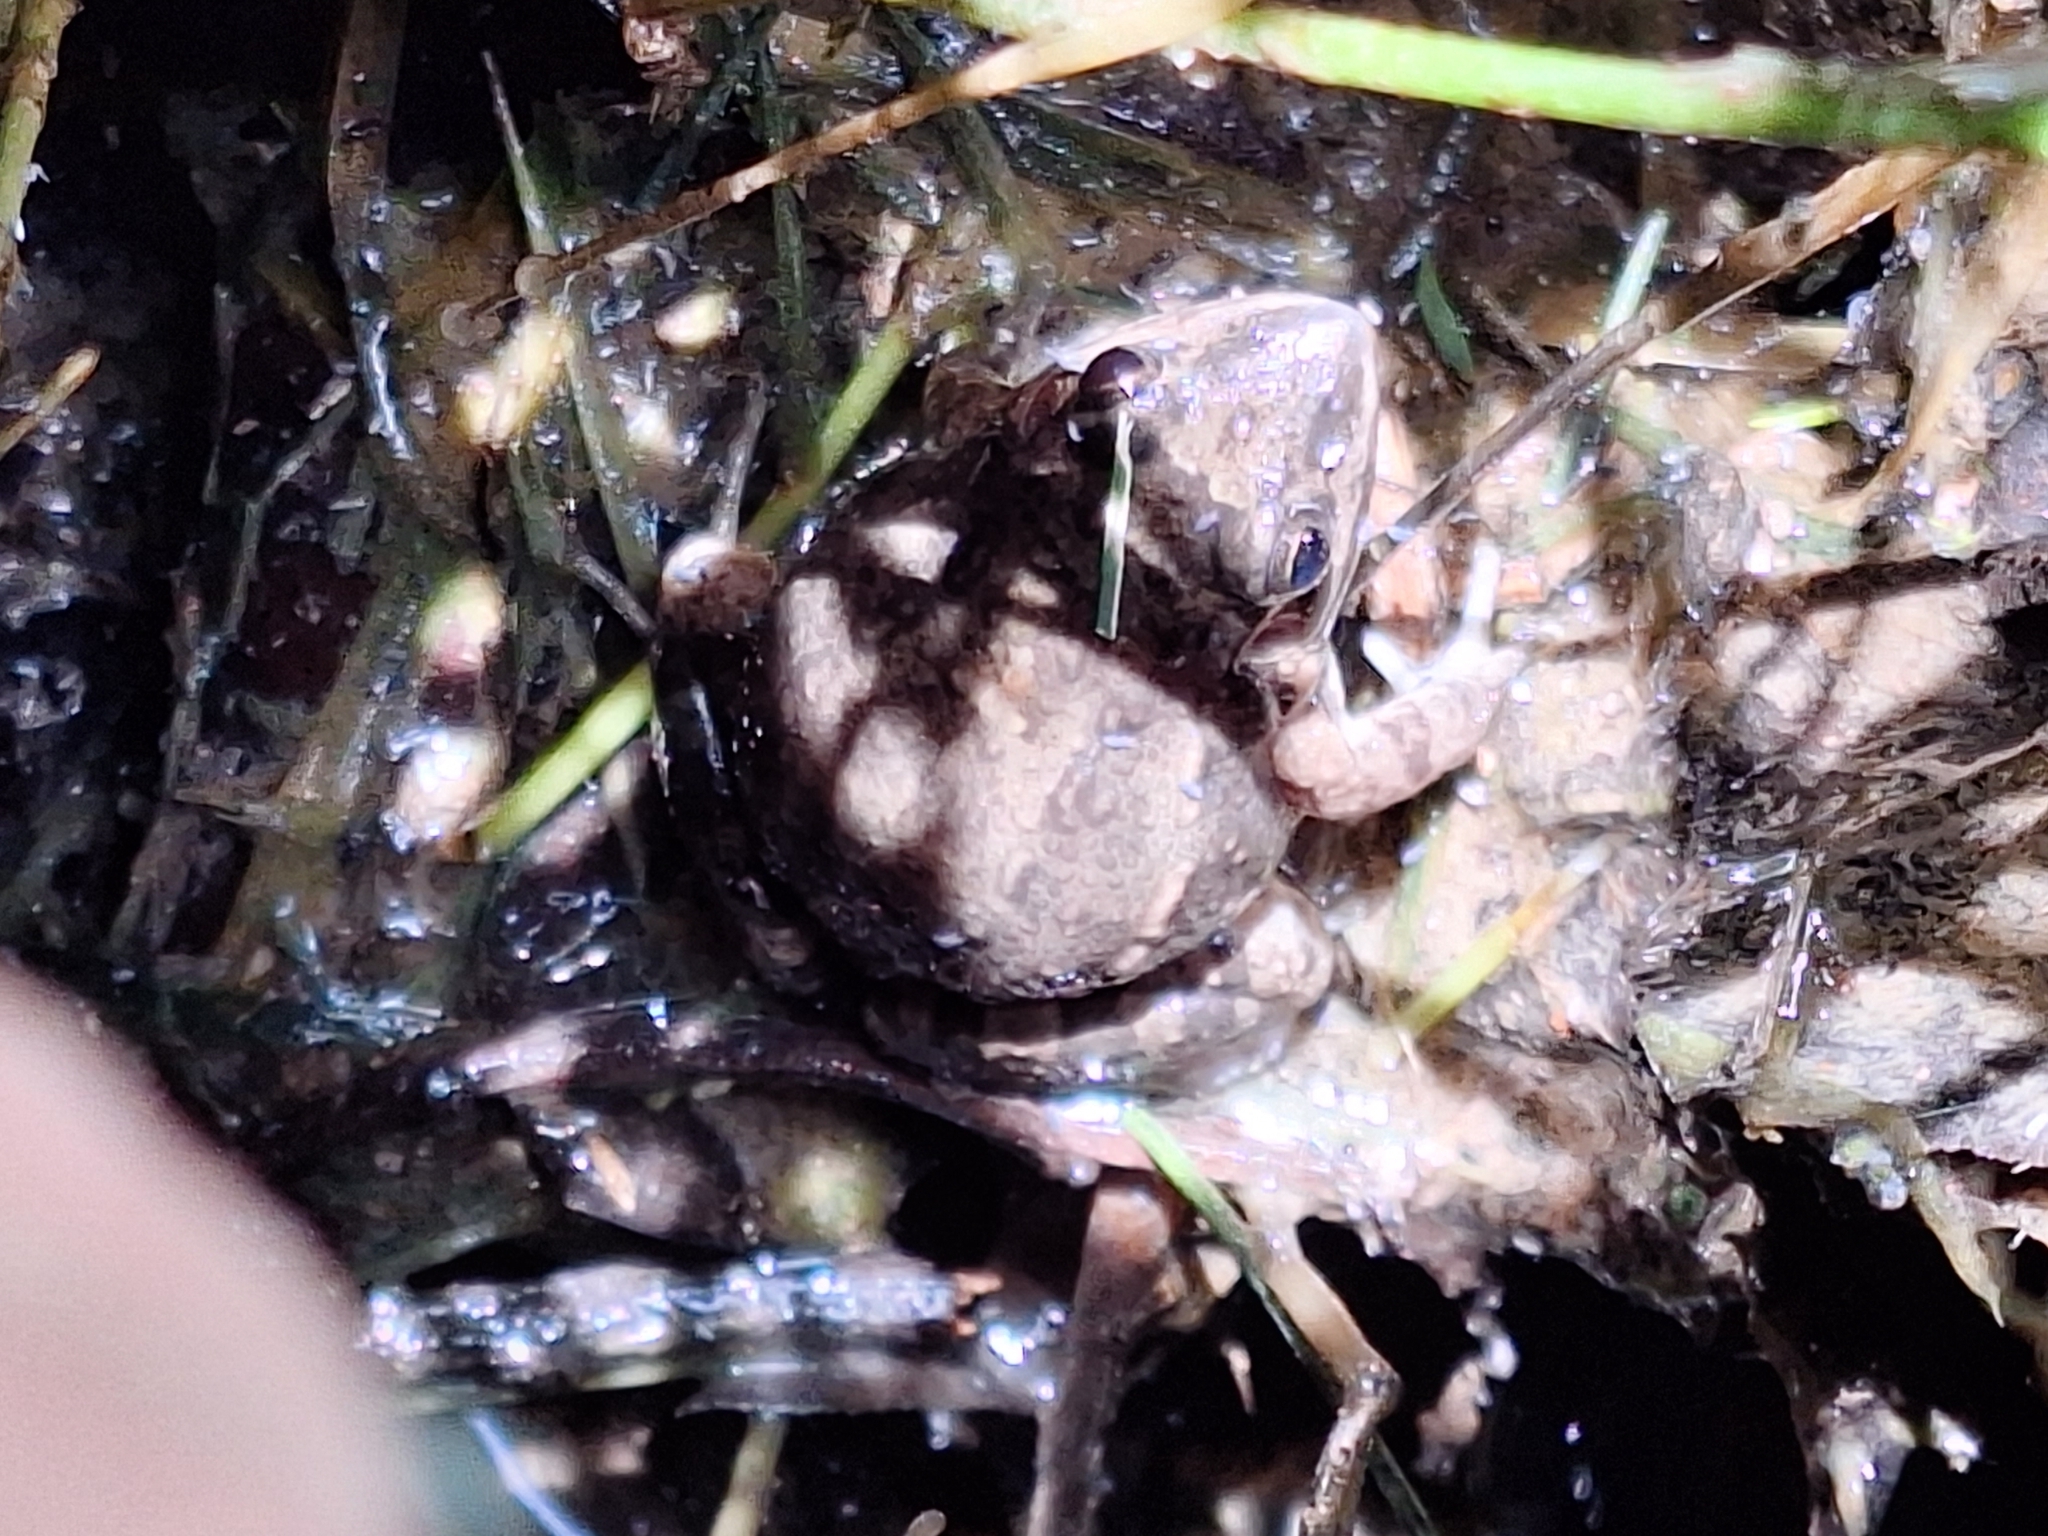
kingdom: Animalia
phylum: Chordata
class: Amphibia
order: Anura
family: Leptodactylidae
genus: Leptodactylus
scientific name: Leptodactylus latinasus
